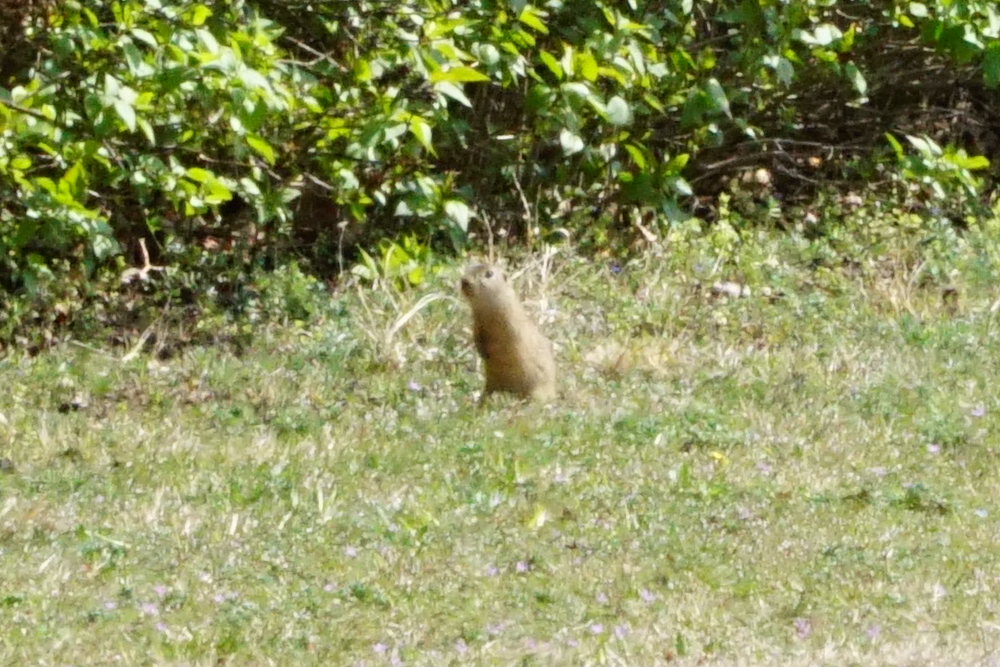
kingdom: Animalia
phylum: Chordata
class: Mammalia
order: Rodentia
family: Sciuridae
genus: Spermophilus
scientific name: Spermophilus citellus
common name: European ground squirrel
